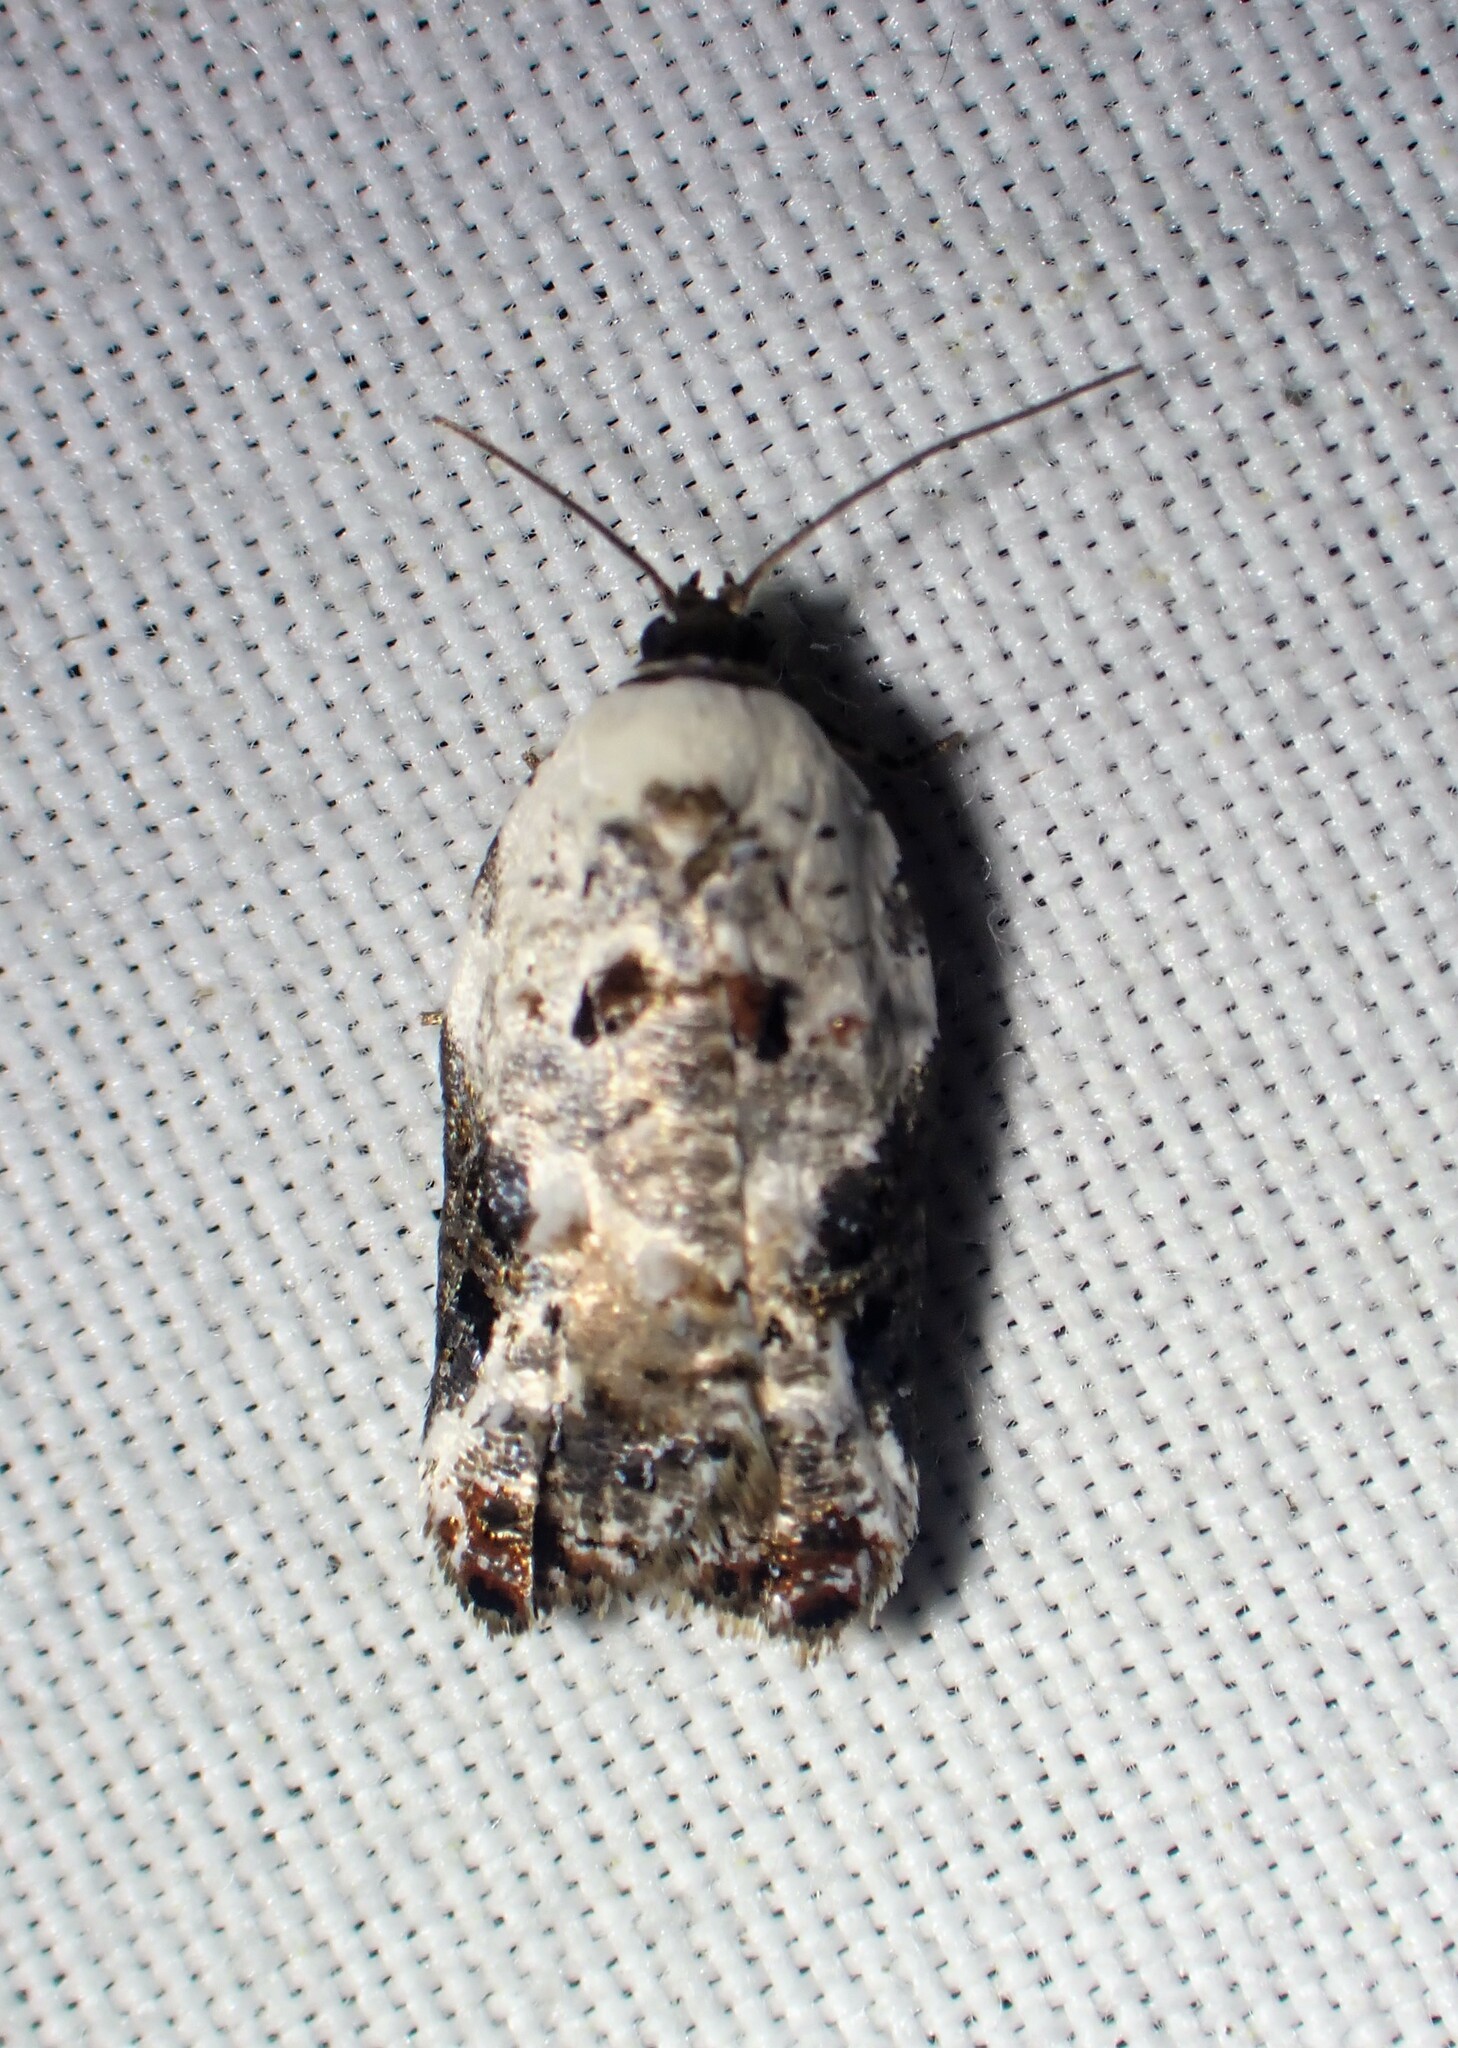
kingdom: Animalia
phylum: Arthropoda
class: Insecta
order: Lepidoptera
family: Tortricidae
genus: Acleris
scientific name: Acleris nivisellana
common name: Snowy-shouldered acleris moth
